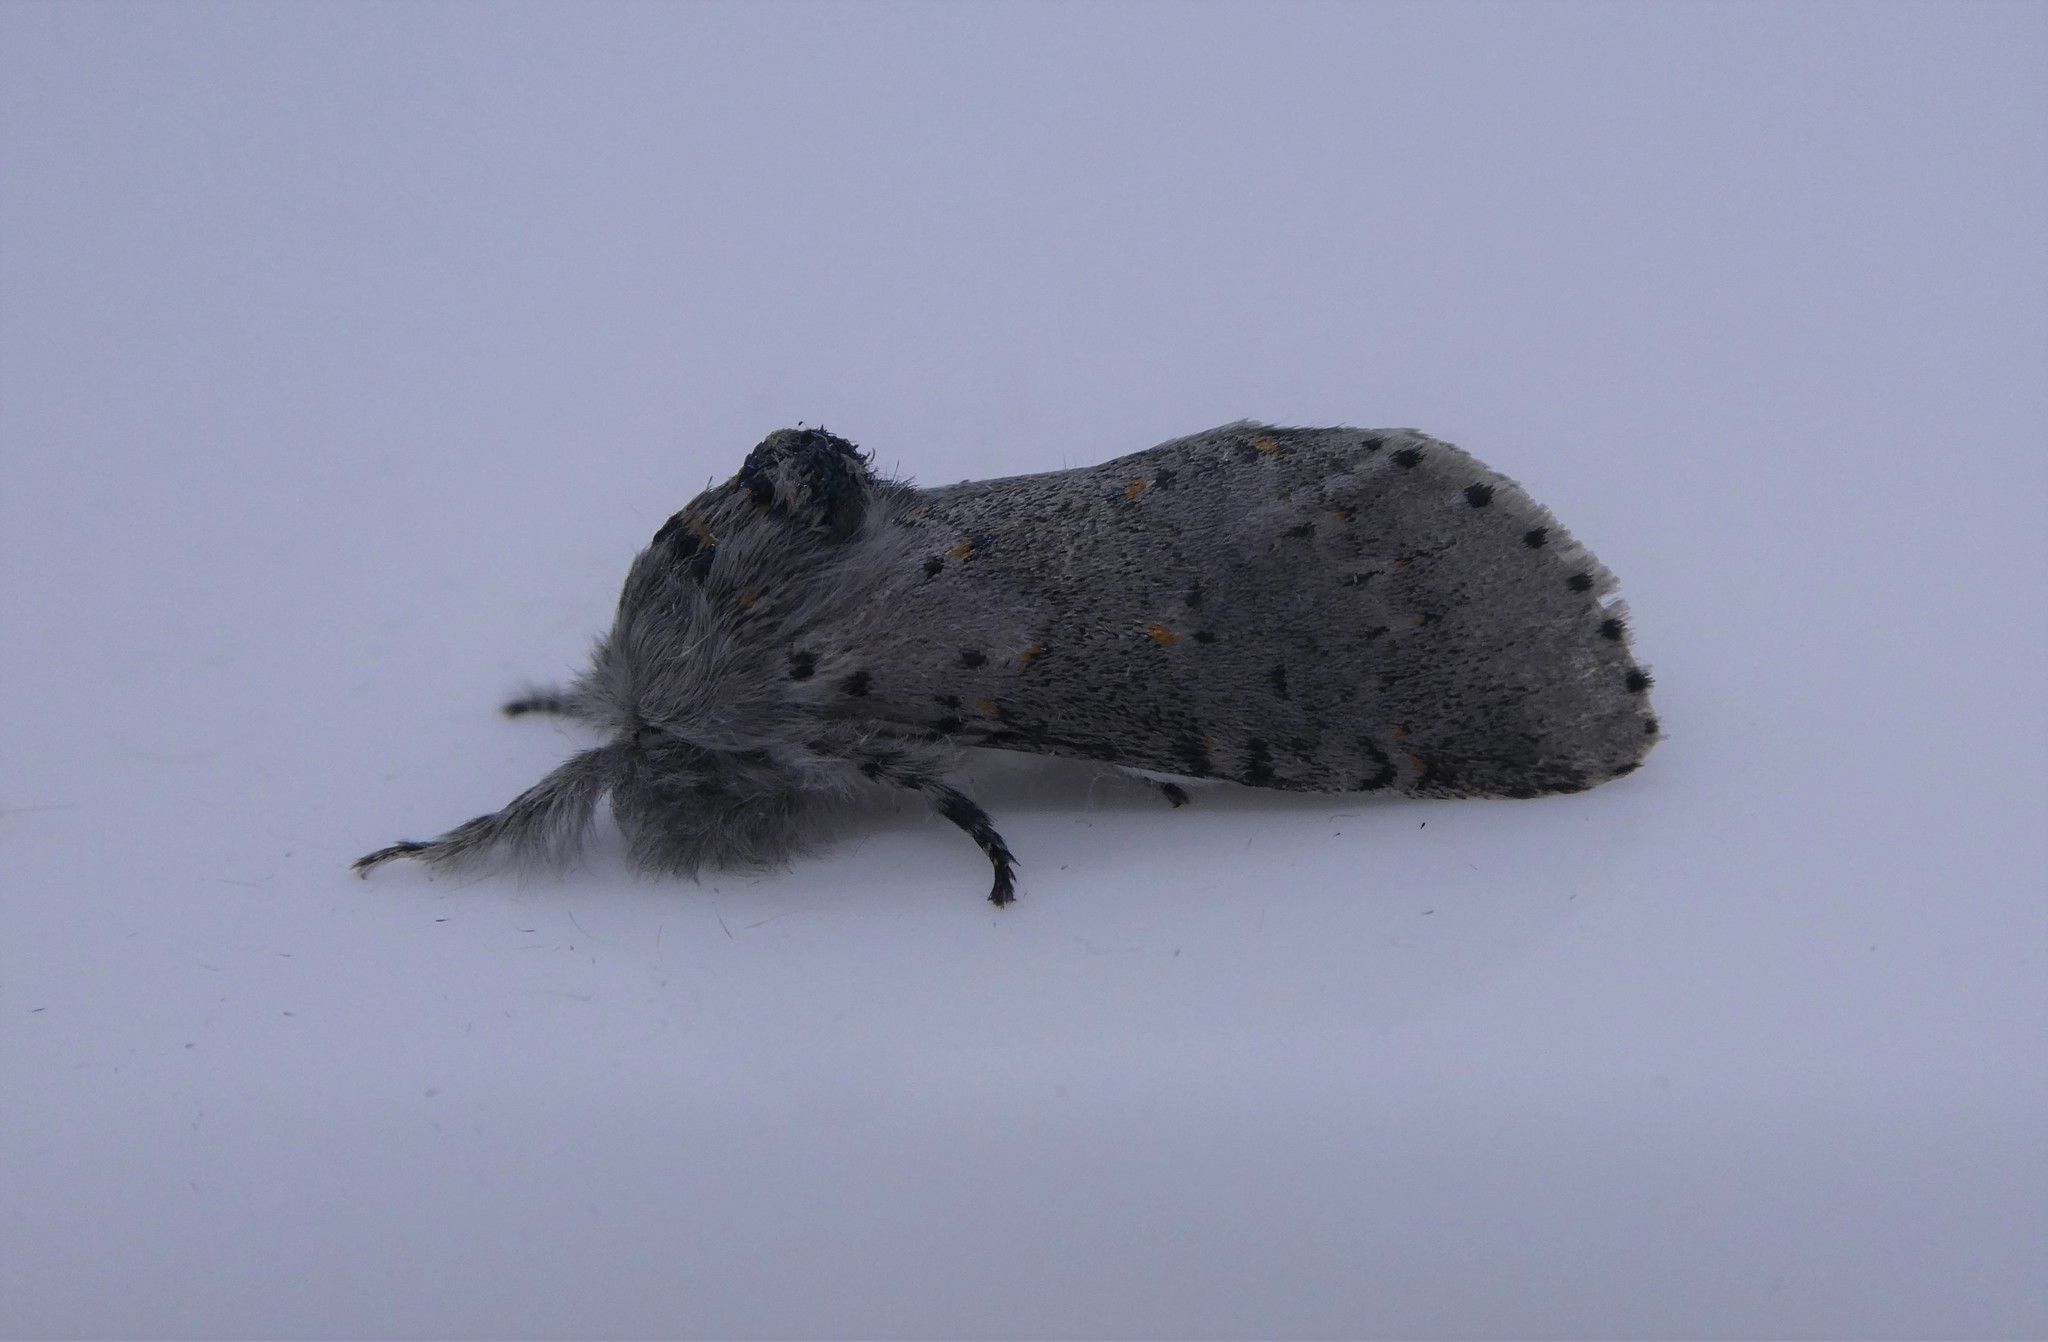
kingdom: Animalia
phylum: Arthropoda
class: Insecta
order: Lepidoptera
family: Notodontidae
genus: Furcula
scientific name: Furcula cinerea
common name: Gray furcula
